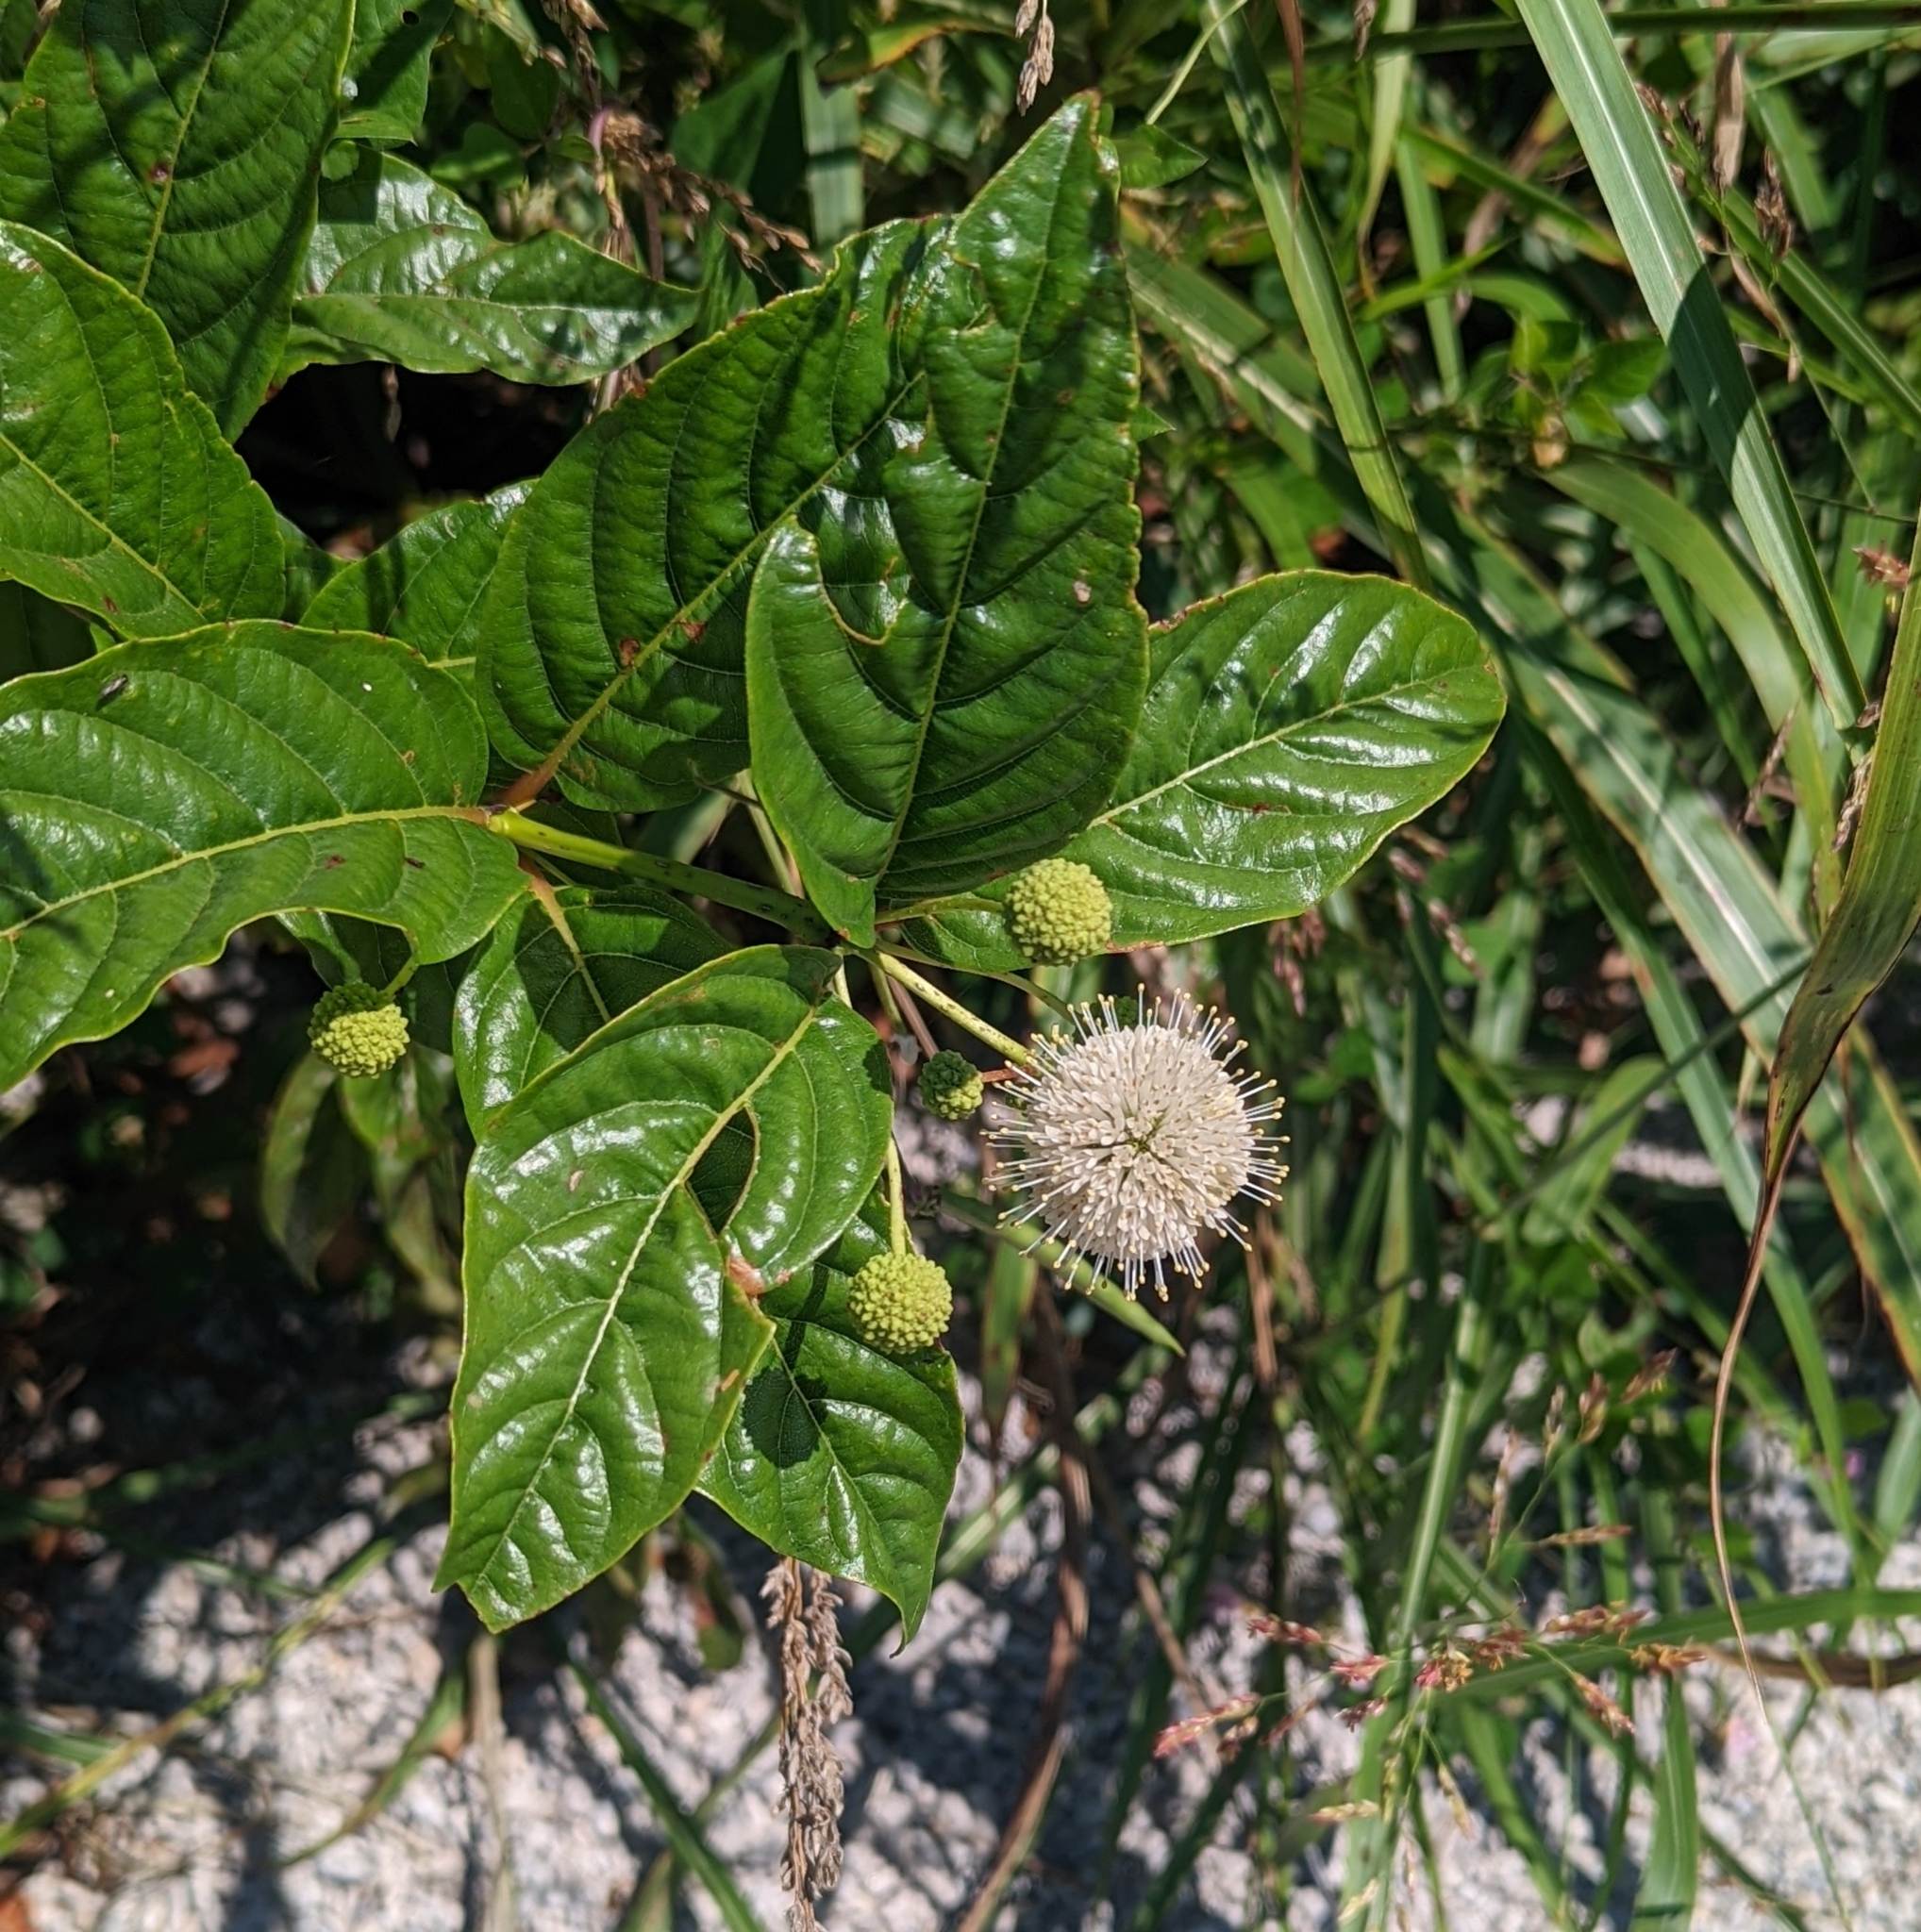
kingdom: Plantae
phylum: Tracheophyta
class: Magnoliopsida
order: Gentianales
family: Rubiaceae
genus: Cephalanthus
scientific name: Cephalanthus occidentalis
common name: Button-willow
